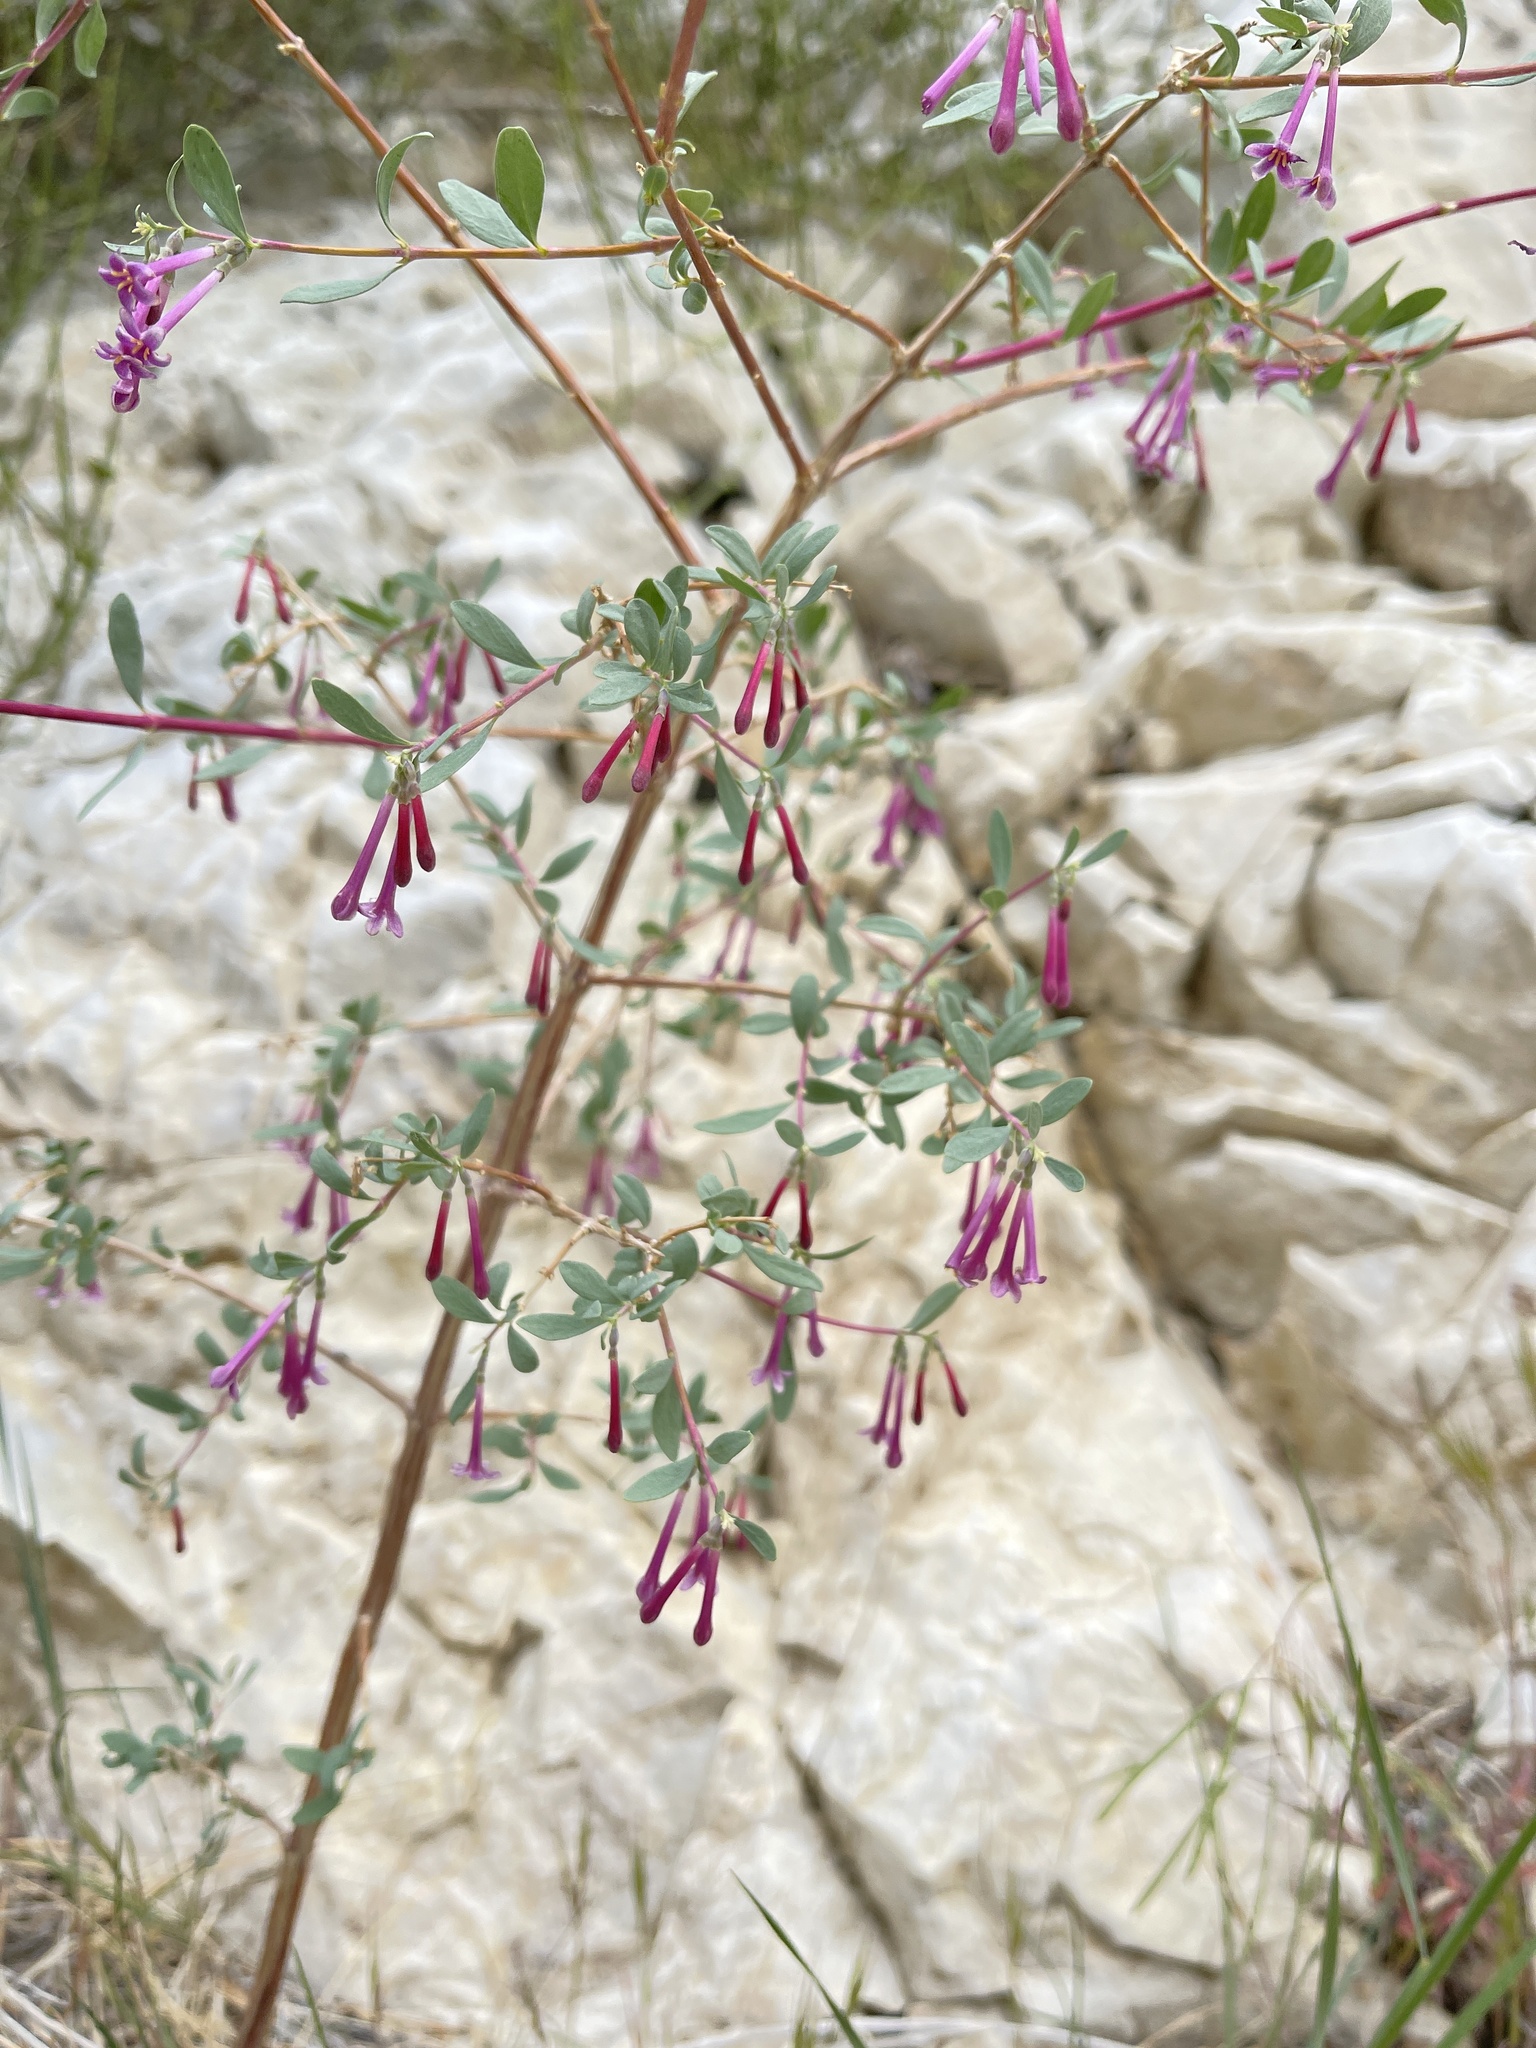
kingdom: Plantae
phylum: Tracheophyta
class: Magnoliopsida
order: Dipsacales
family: Caprifoliaceae
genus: Symphoricarpos
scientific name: Symphoricarpos longiflorus
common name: Fragrant snowberry
